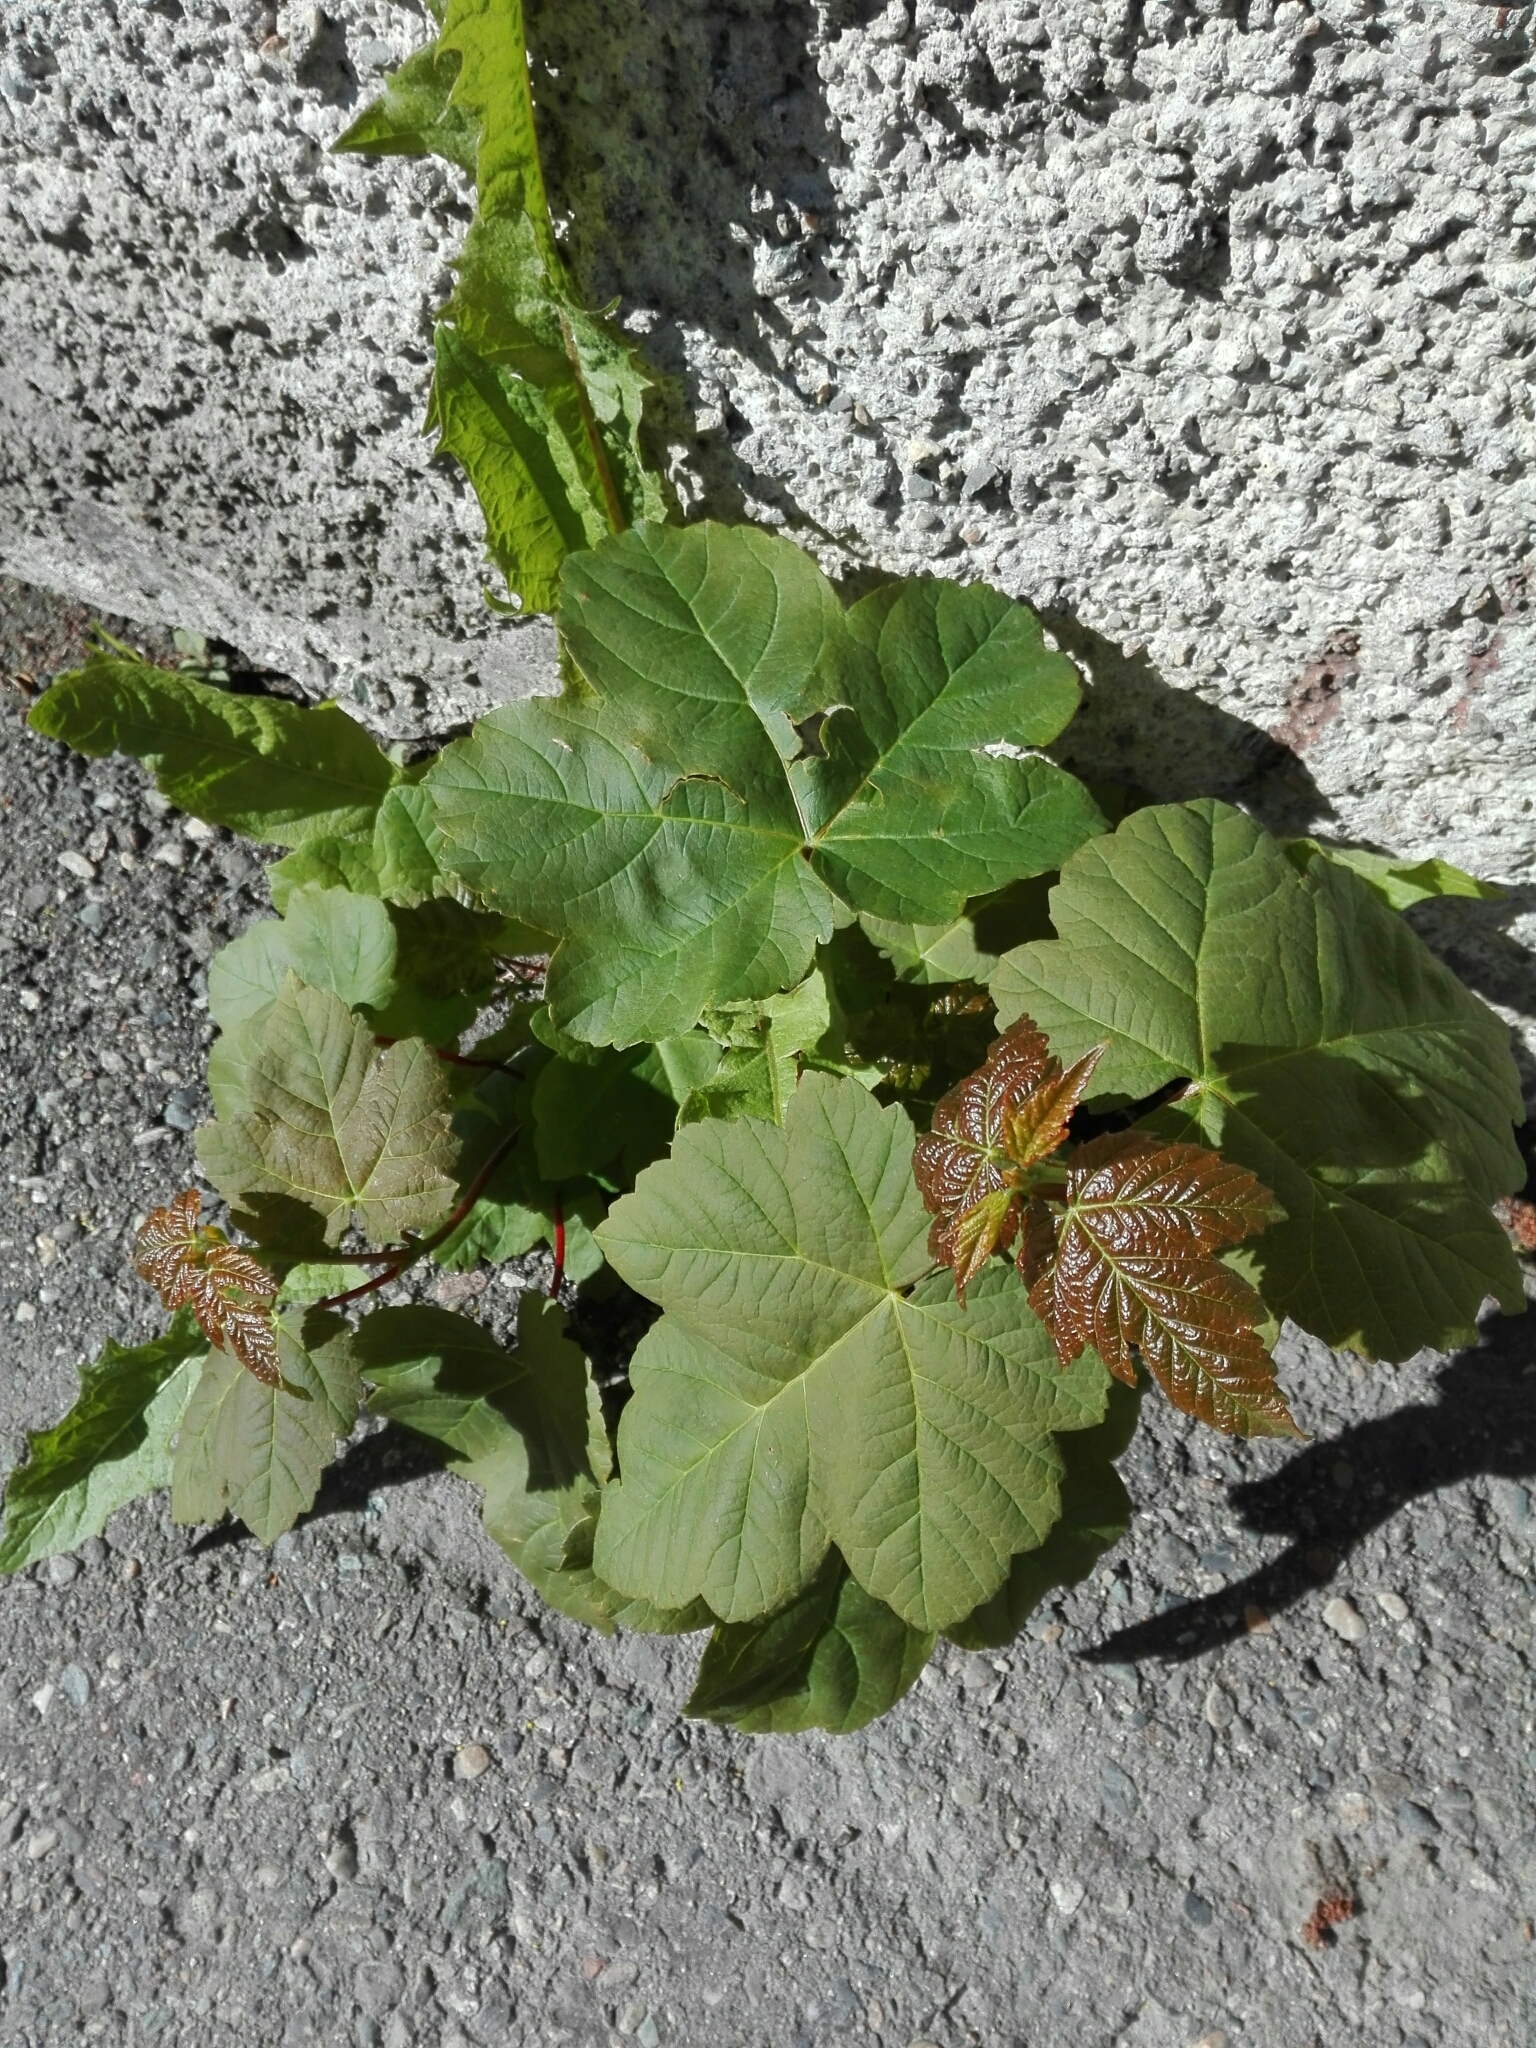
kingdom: Plantae
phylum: Tracheophyta
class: Magnoliopsida
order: Sapindales
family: Sapindaceae
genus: Acer
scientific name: Acer pseudoplatanus
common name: Sycamore
